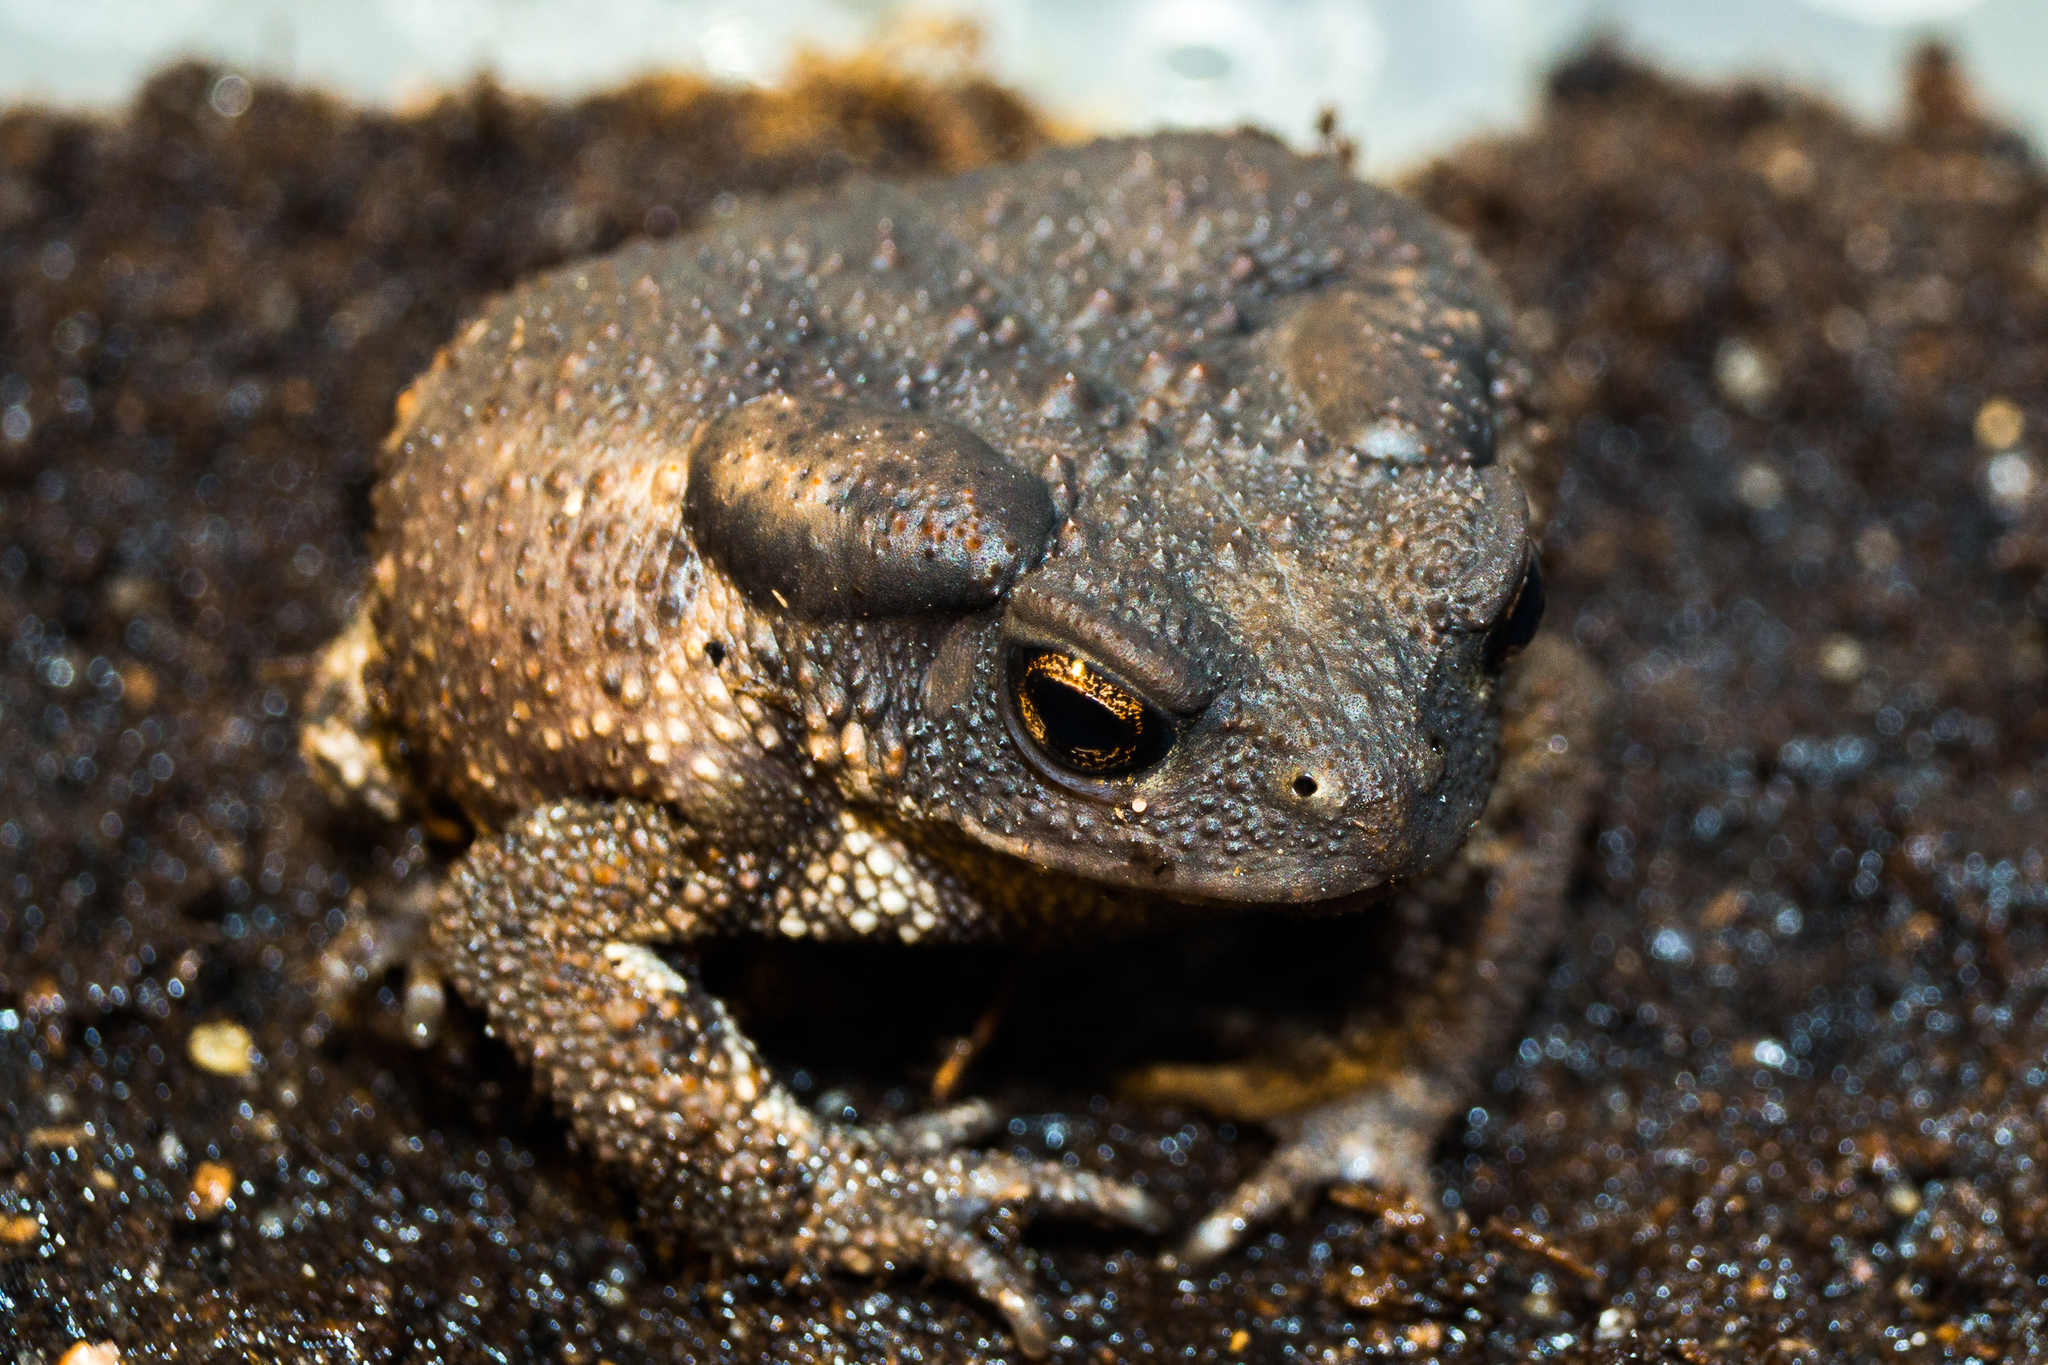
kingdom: Animalia
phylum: Chordata
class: Amphibia
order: Anura
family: Bufonidae
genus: Bufo
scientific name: Bufo verrucosissimus
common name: Caucasian toad
